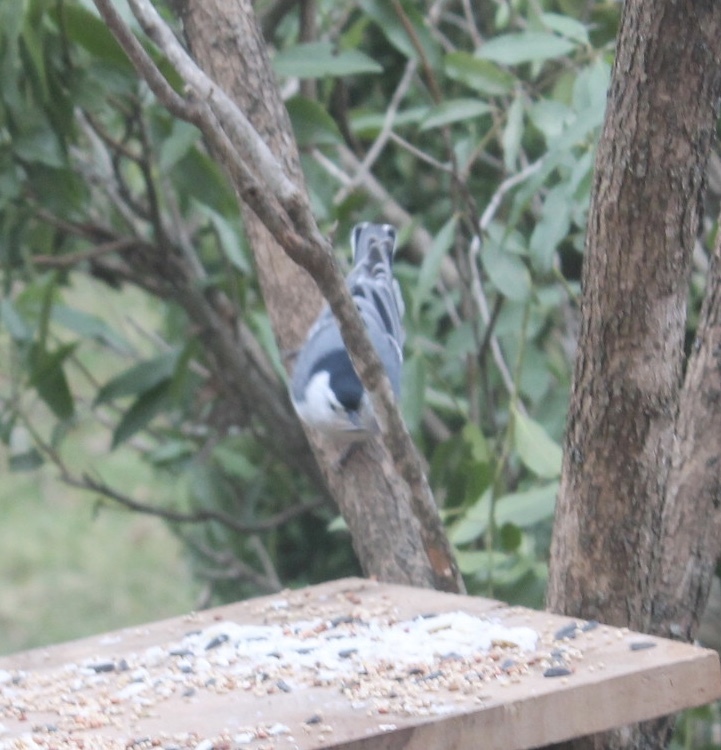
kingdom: Animalia
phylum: Chordata
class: Aves
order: Passeriformes
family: Sittidae
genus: Sitta
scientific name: Sitta carolinensis
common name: White-breasted nuthatch
